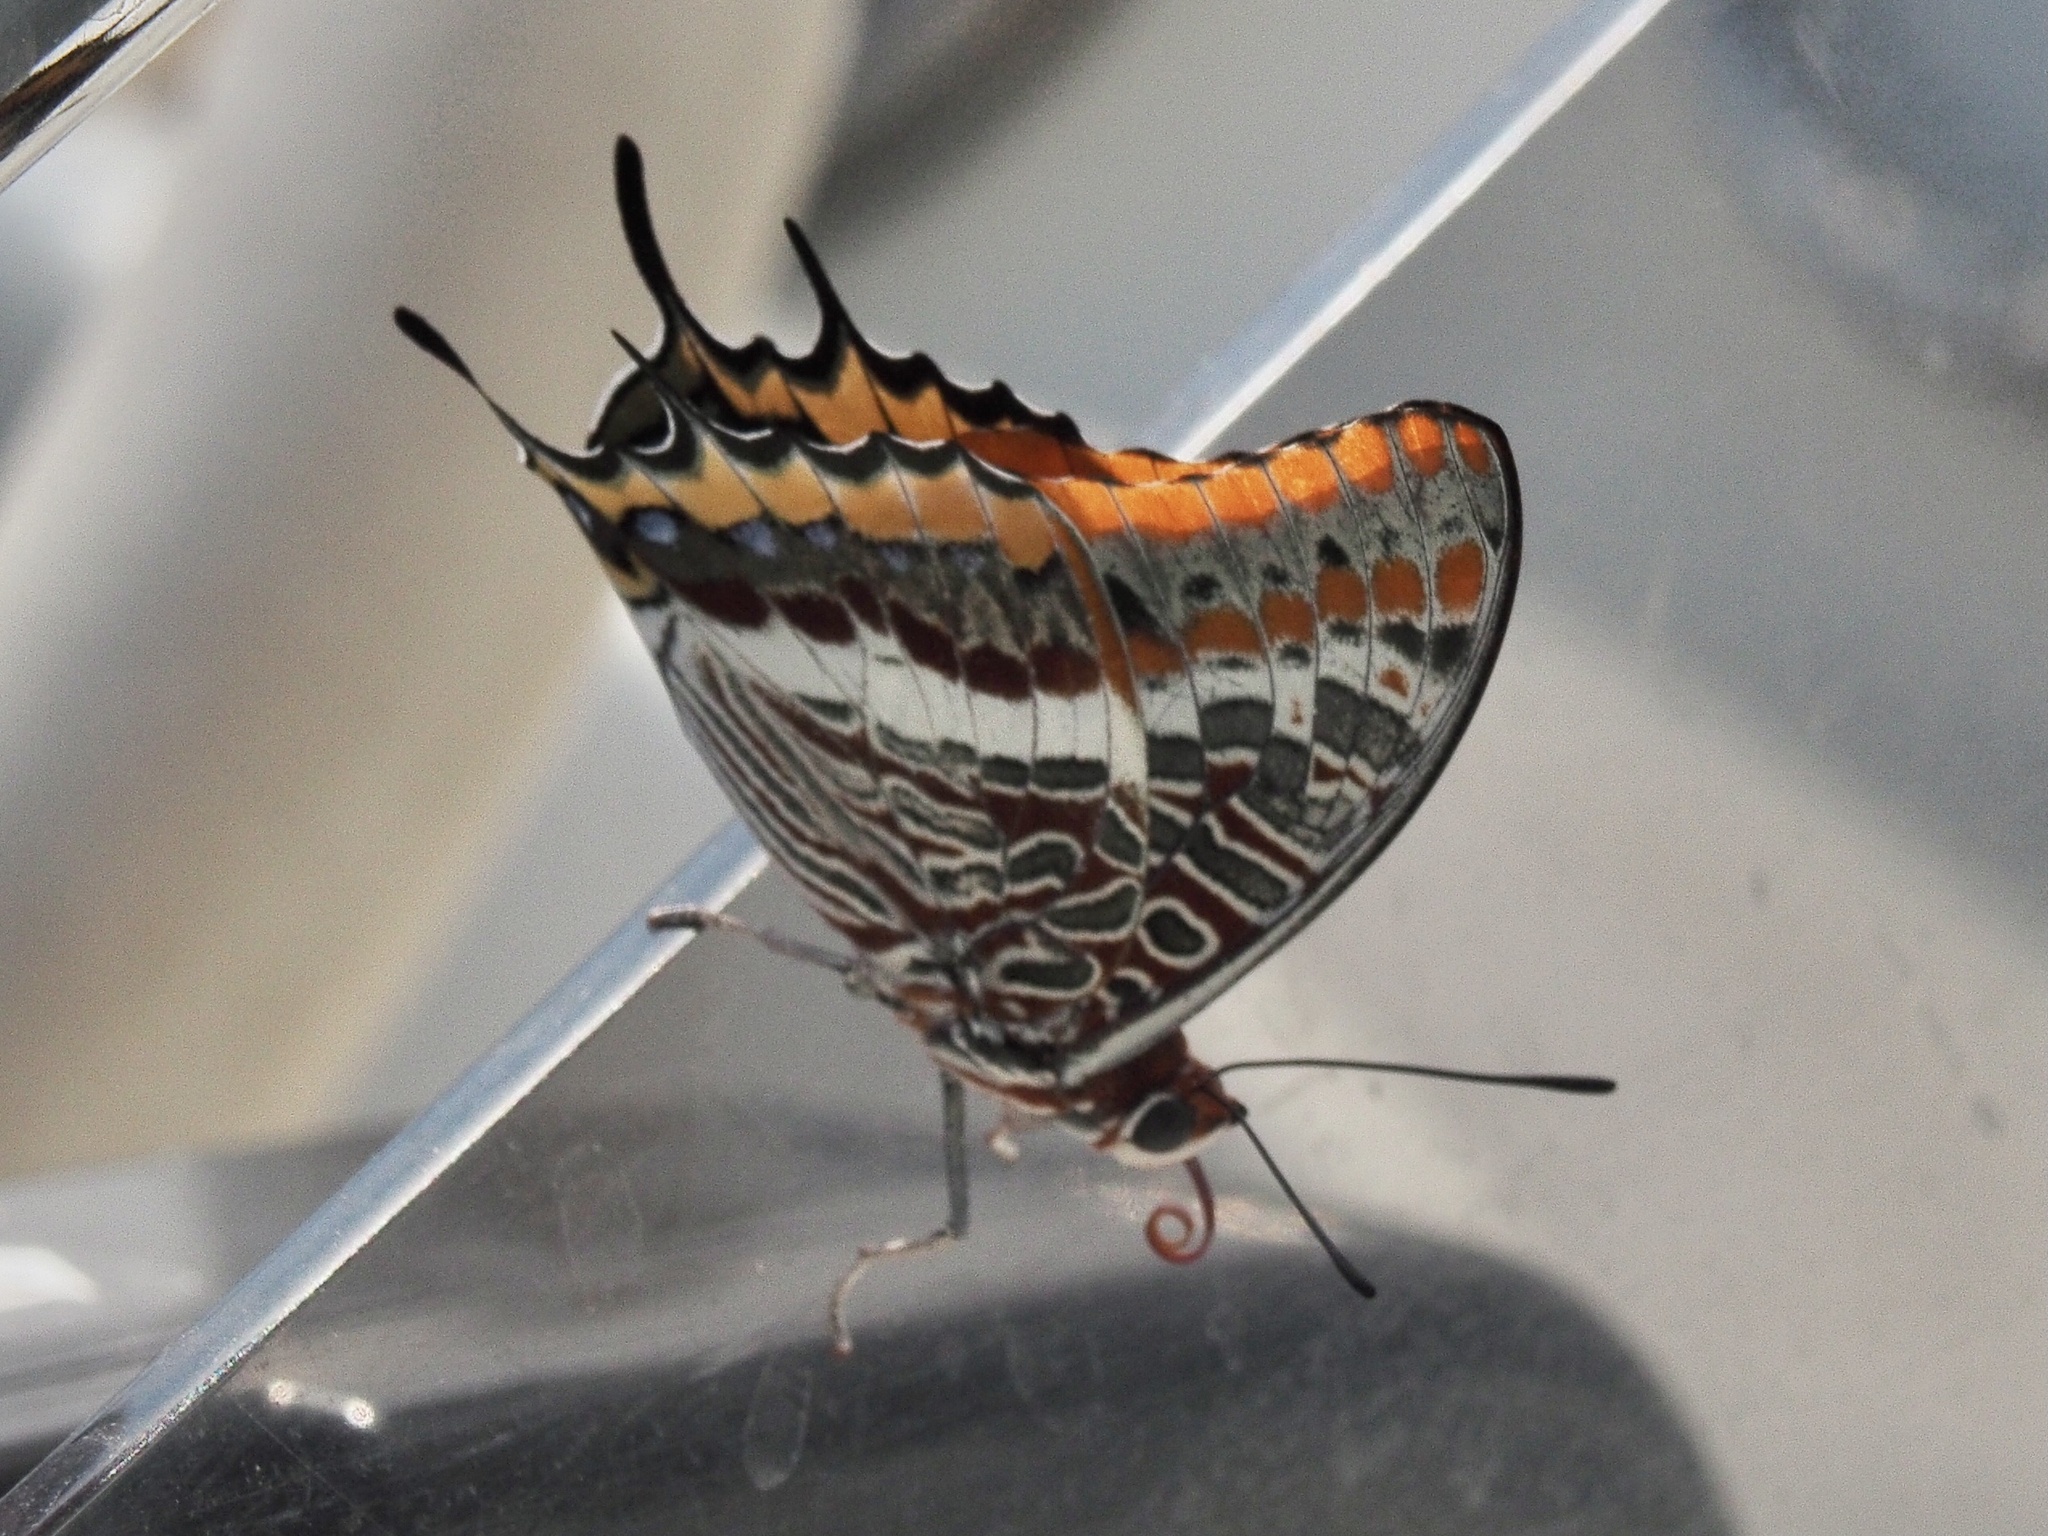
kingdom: Animalia
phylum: Arthropoda
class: Insecta
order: Lepidoptera
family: Nymphalidae
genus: Charaxes
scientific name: Charaxes jasius
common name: Two tailed pasha
